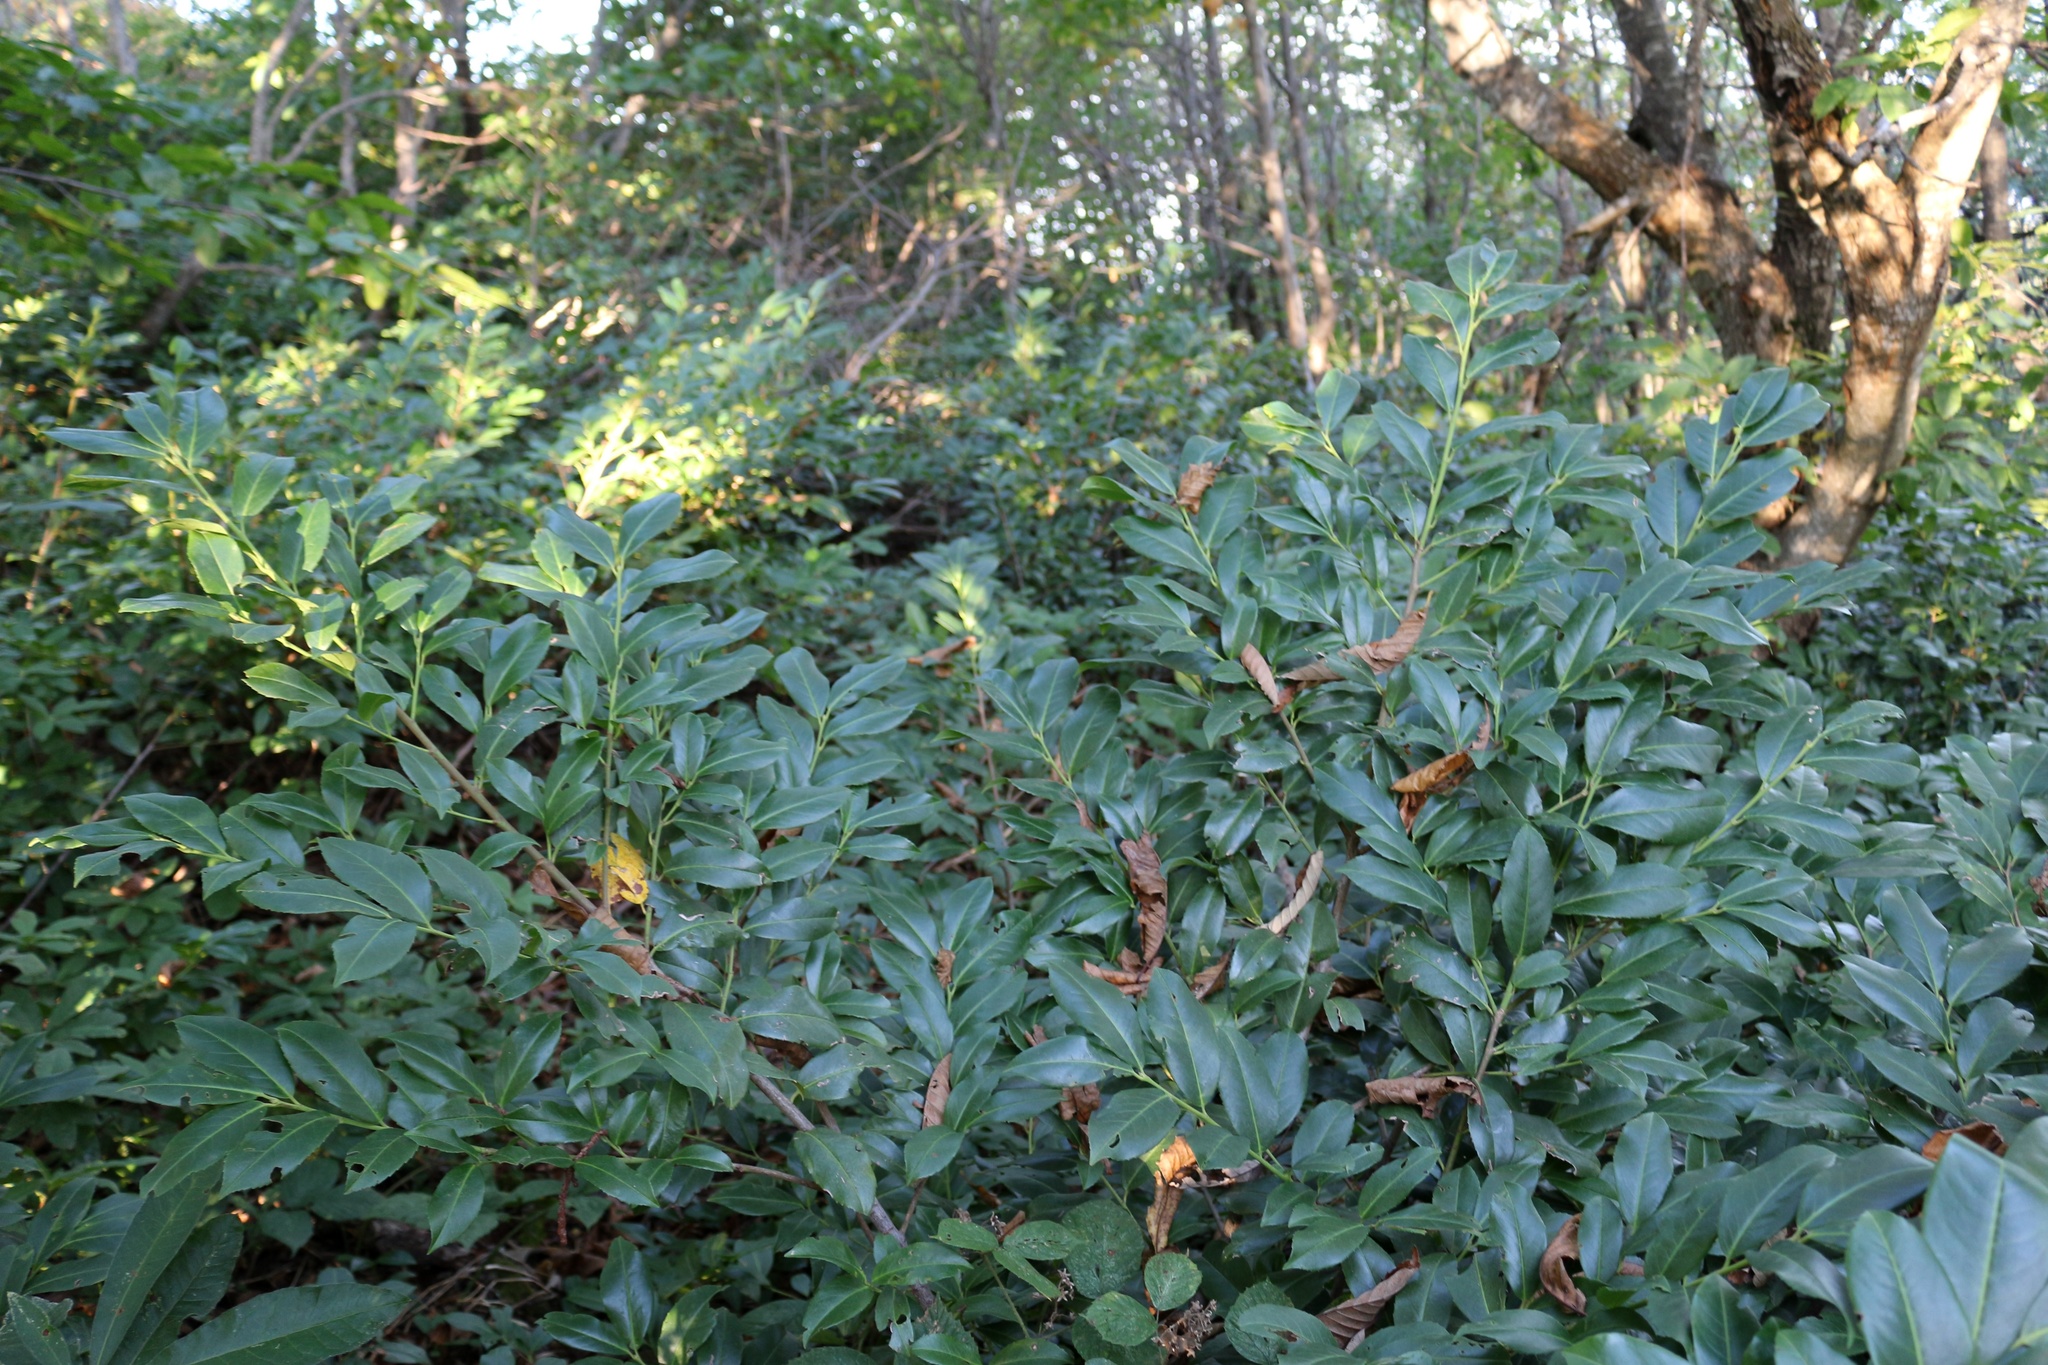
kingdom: Plantae
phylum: Tracheophyta
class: Magnoliopsida
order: Rosales
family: Rosaceae
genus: Prunus
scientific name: Prunus laurocerasus
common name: Cherry laurel
